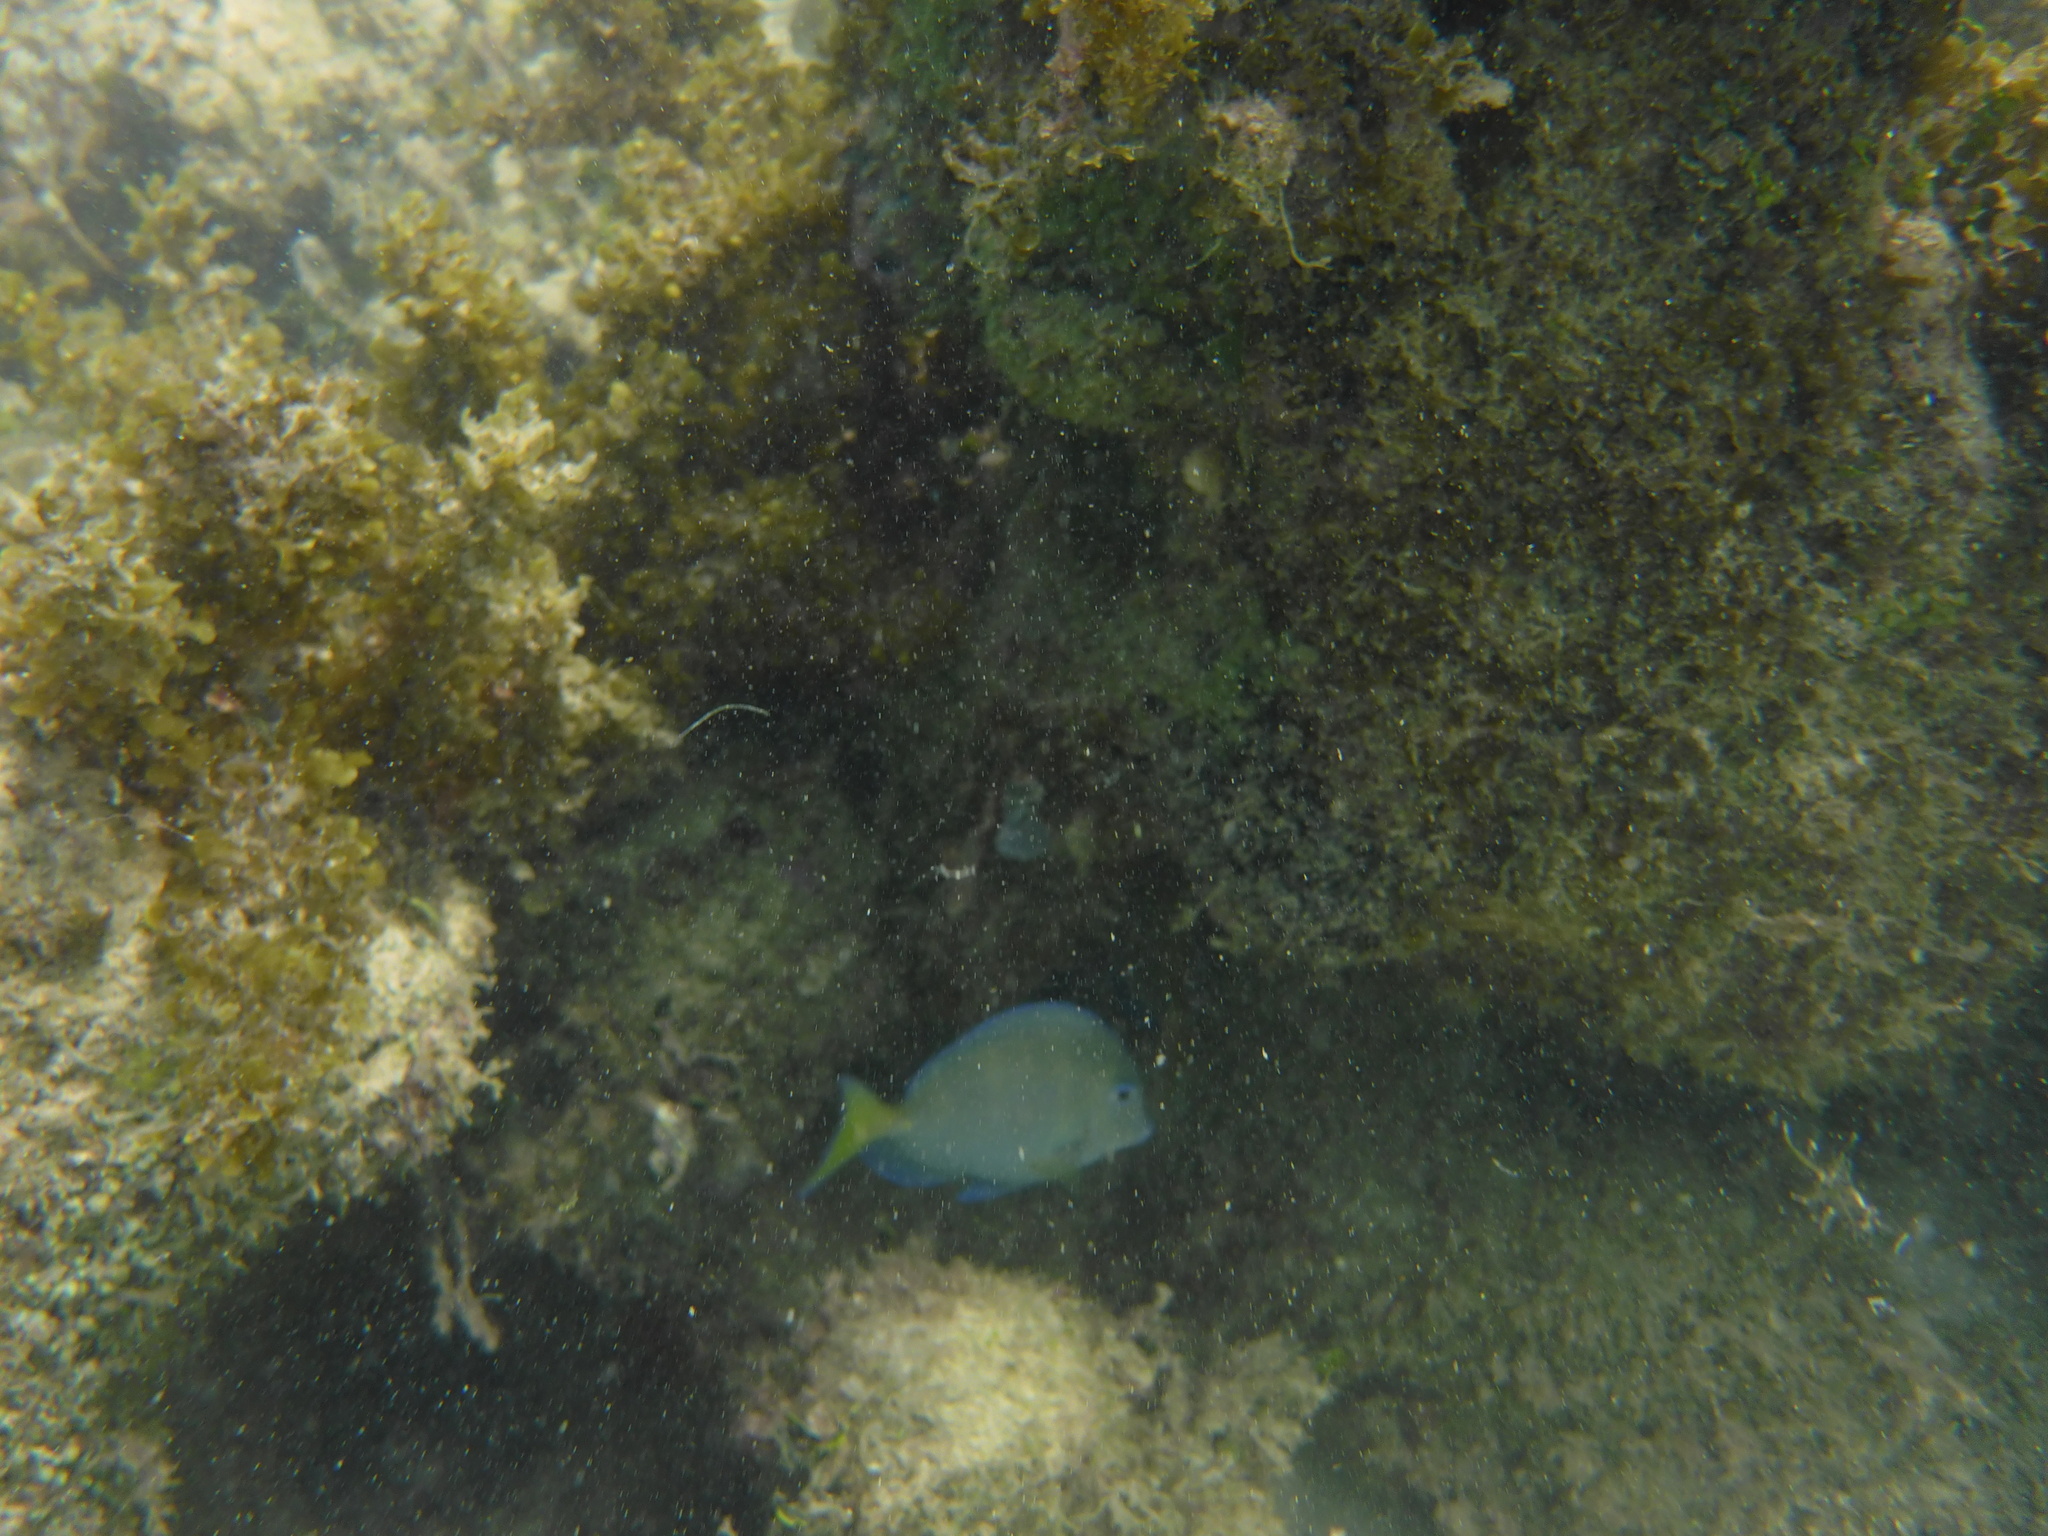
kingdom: Animalia
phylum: Chordata
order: Perciformes
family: Acanthuridae
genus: Acanthurus
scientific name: Acanthurus coeruleus
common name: Blue tang
